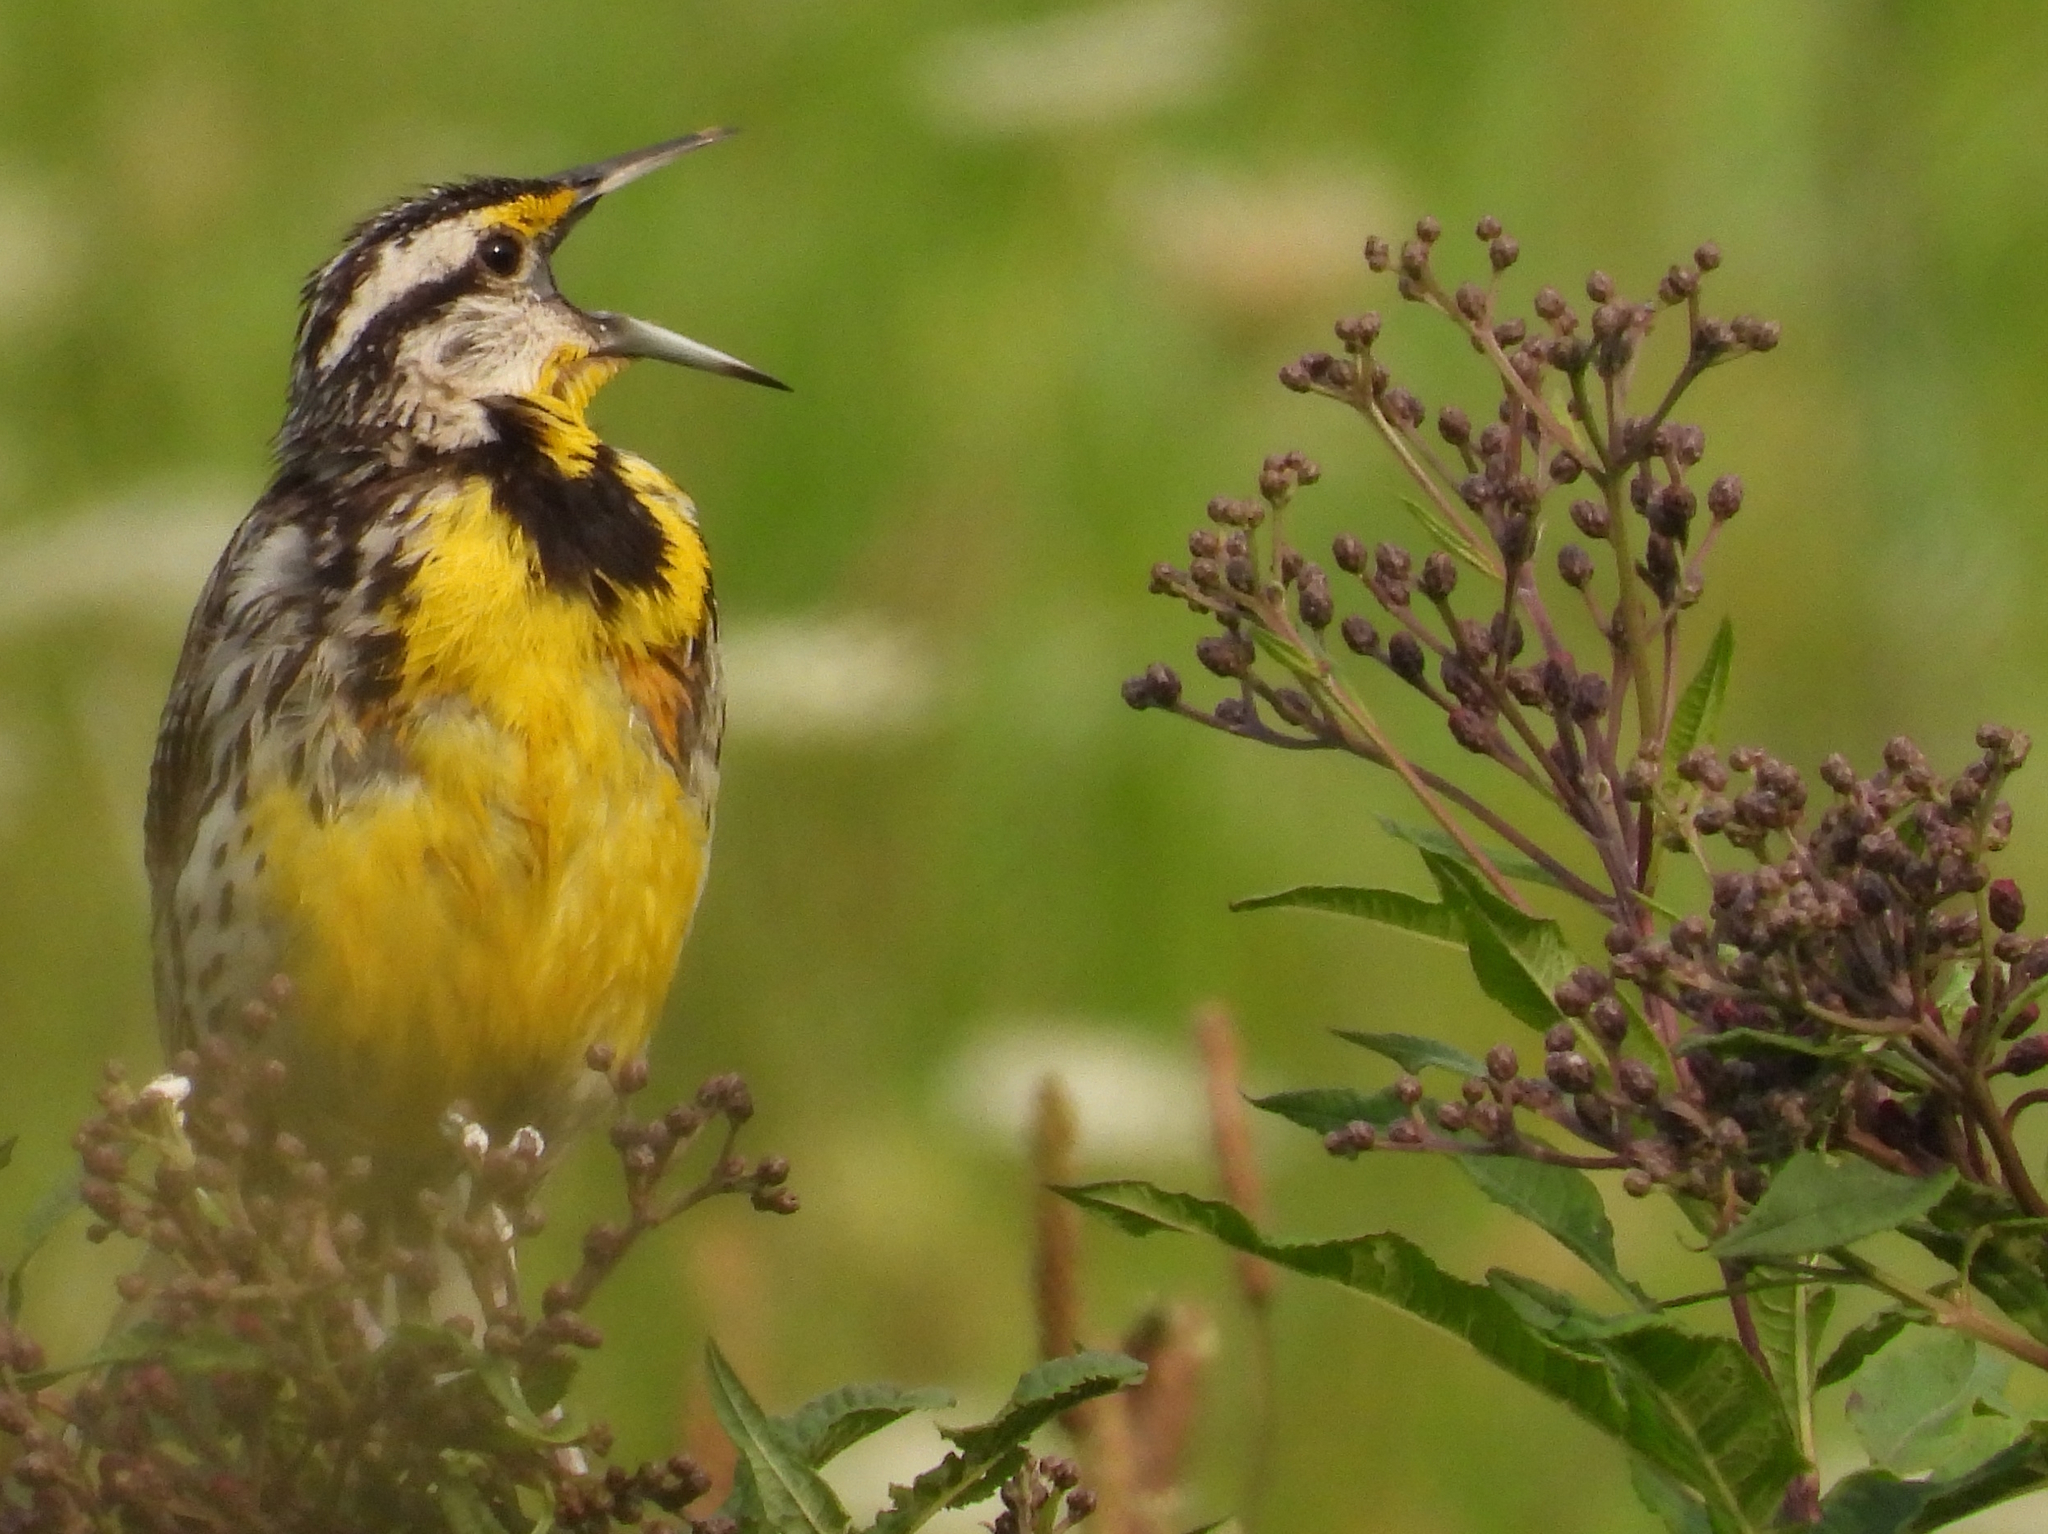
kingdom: Animalia
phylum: Chordata
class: Aves
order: Passeriformes
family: Icteridae
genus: Sturnella
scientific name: Sturnella magna
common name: Eastern meadowlark
